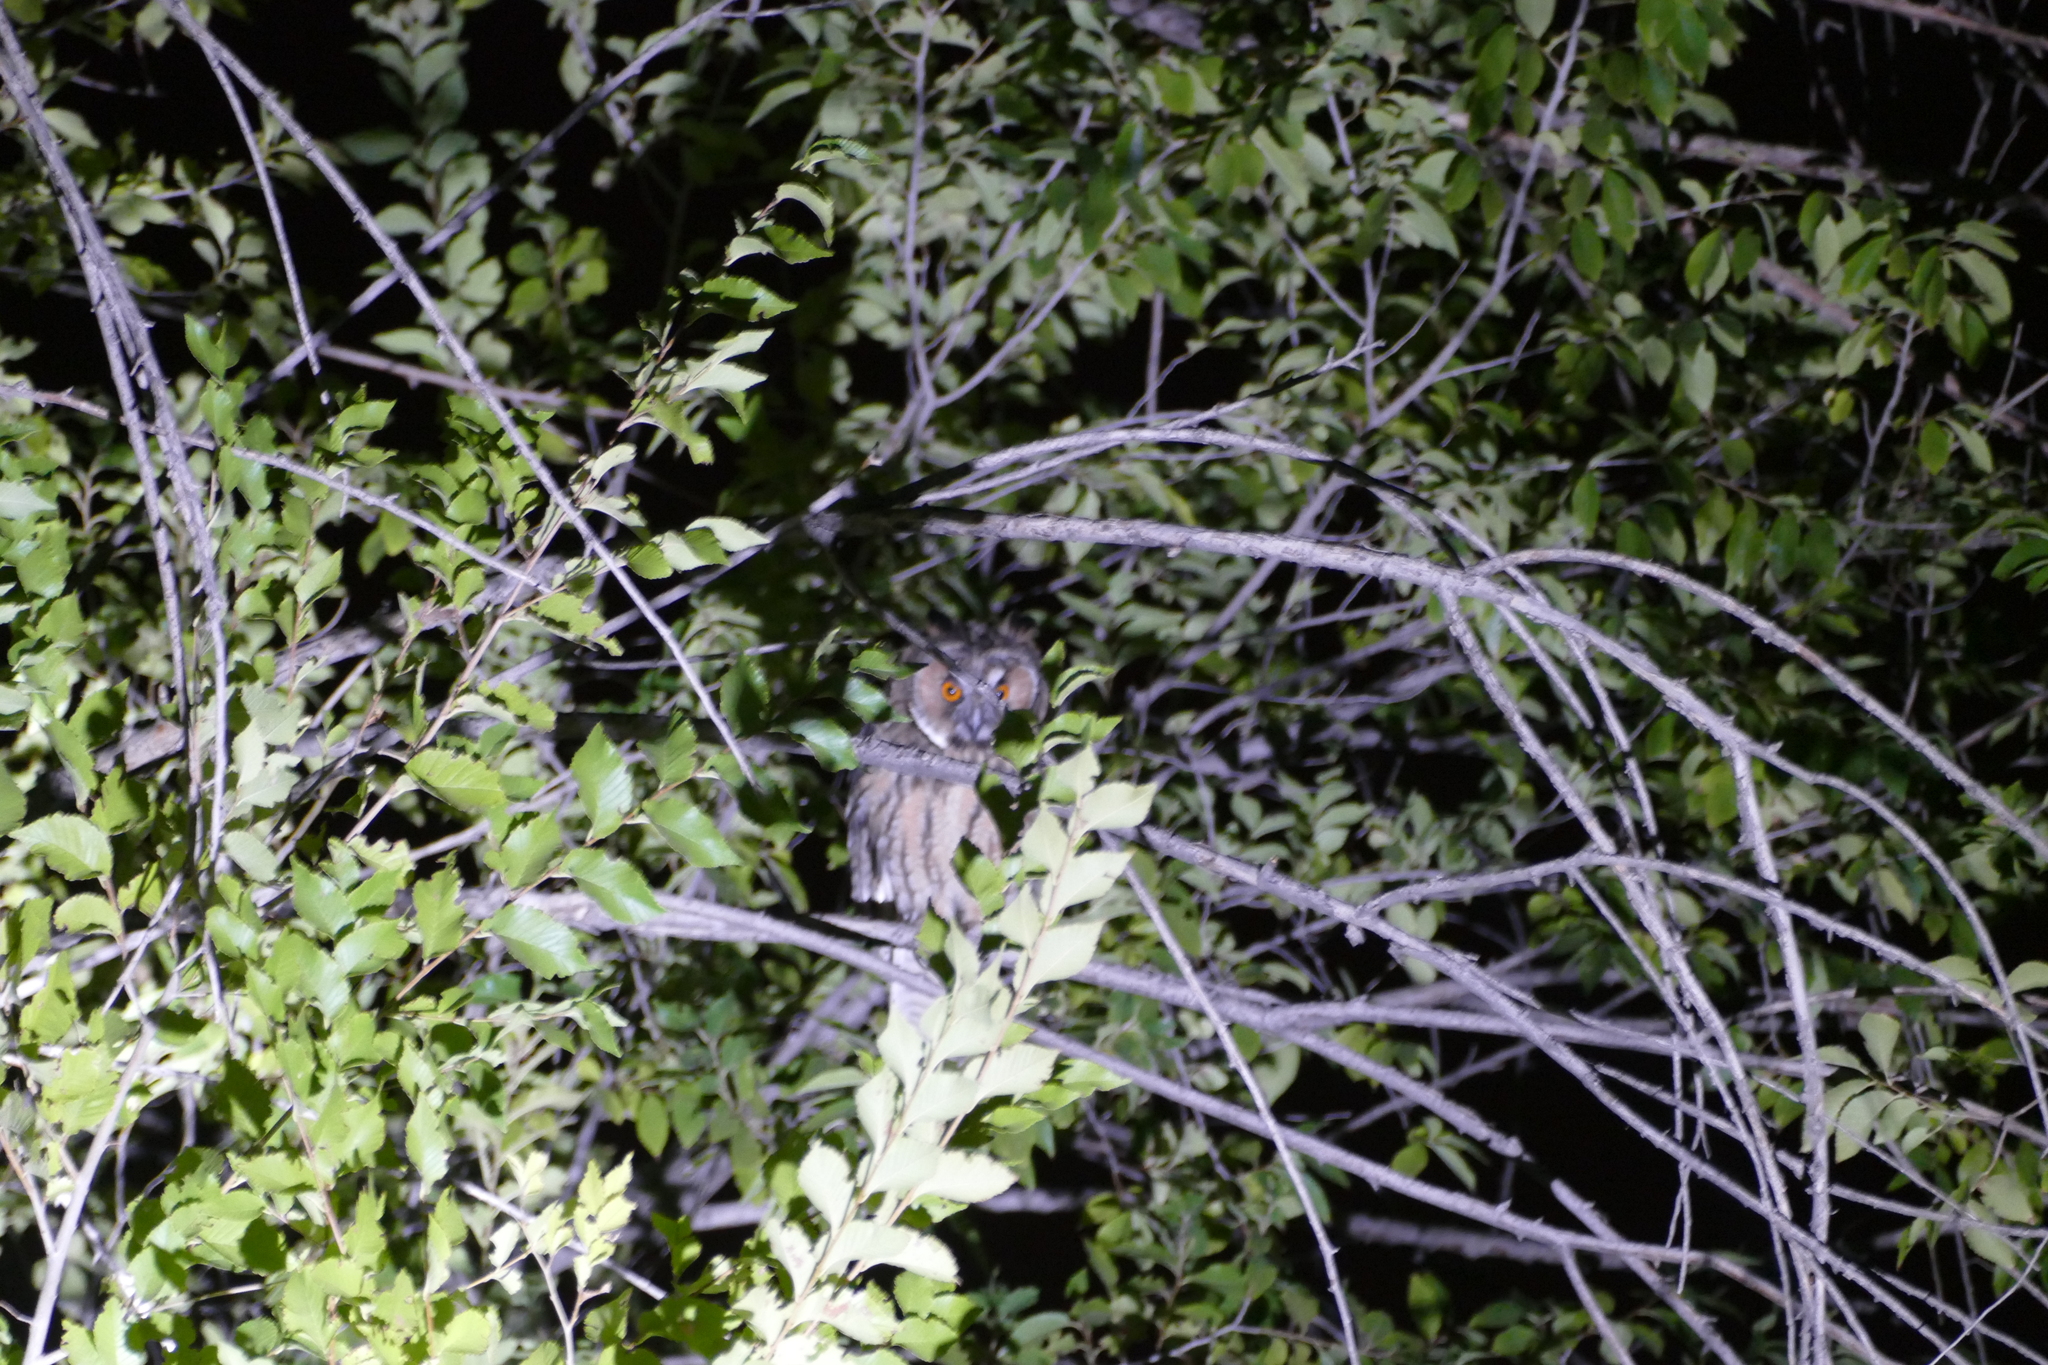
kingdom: Animalia
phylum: Chordata
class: Aves
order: Strigiformes
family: Strigidae
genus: Asio
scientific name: Asio otus
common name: Long-eared owl
